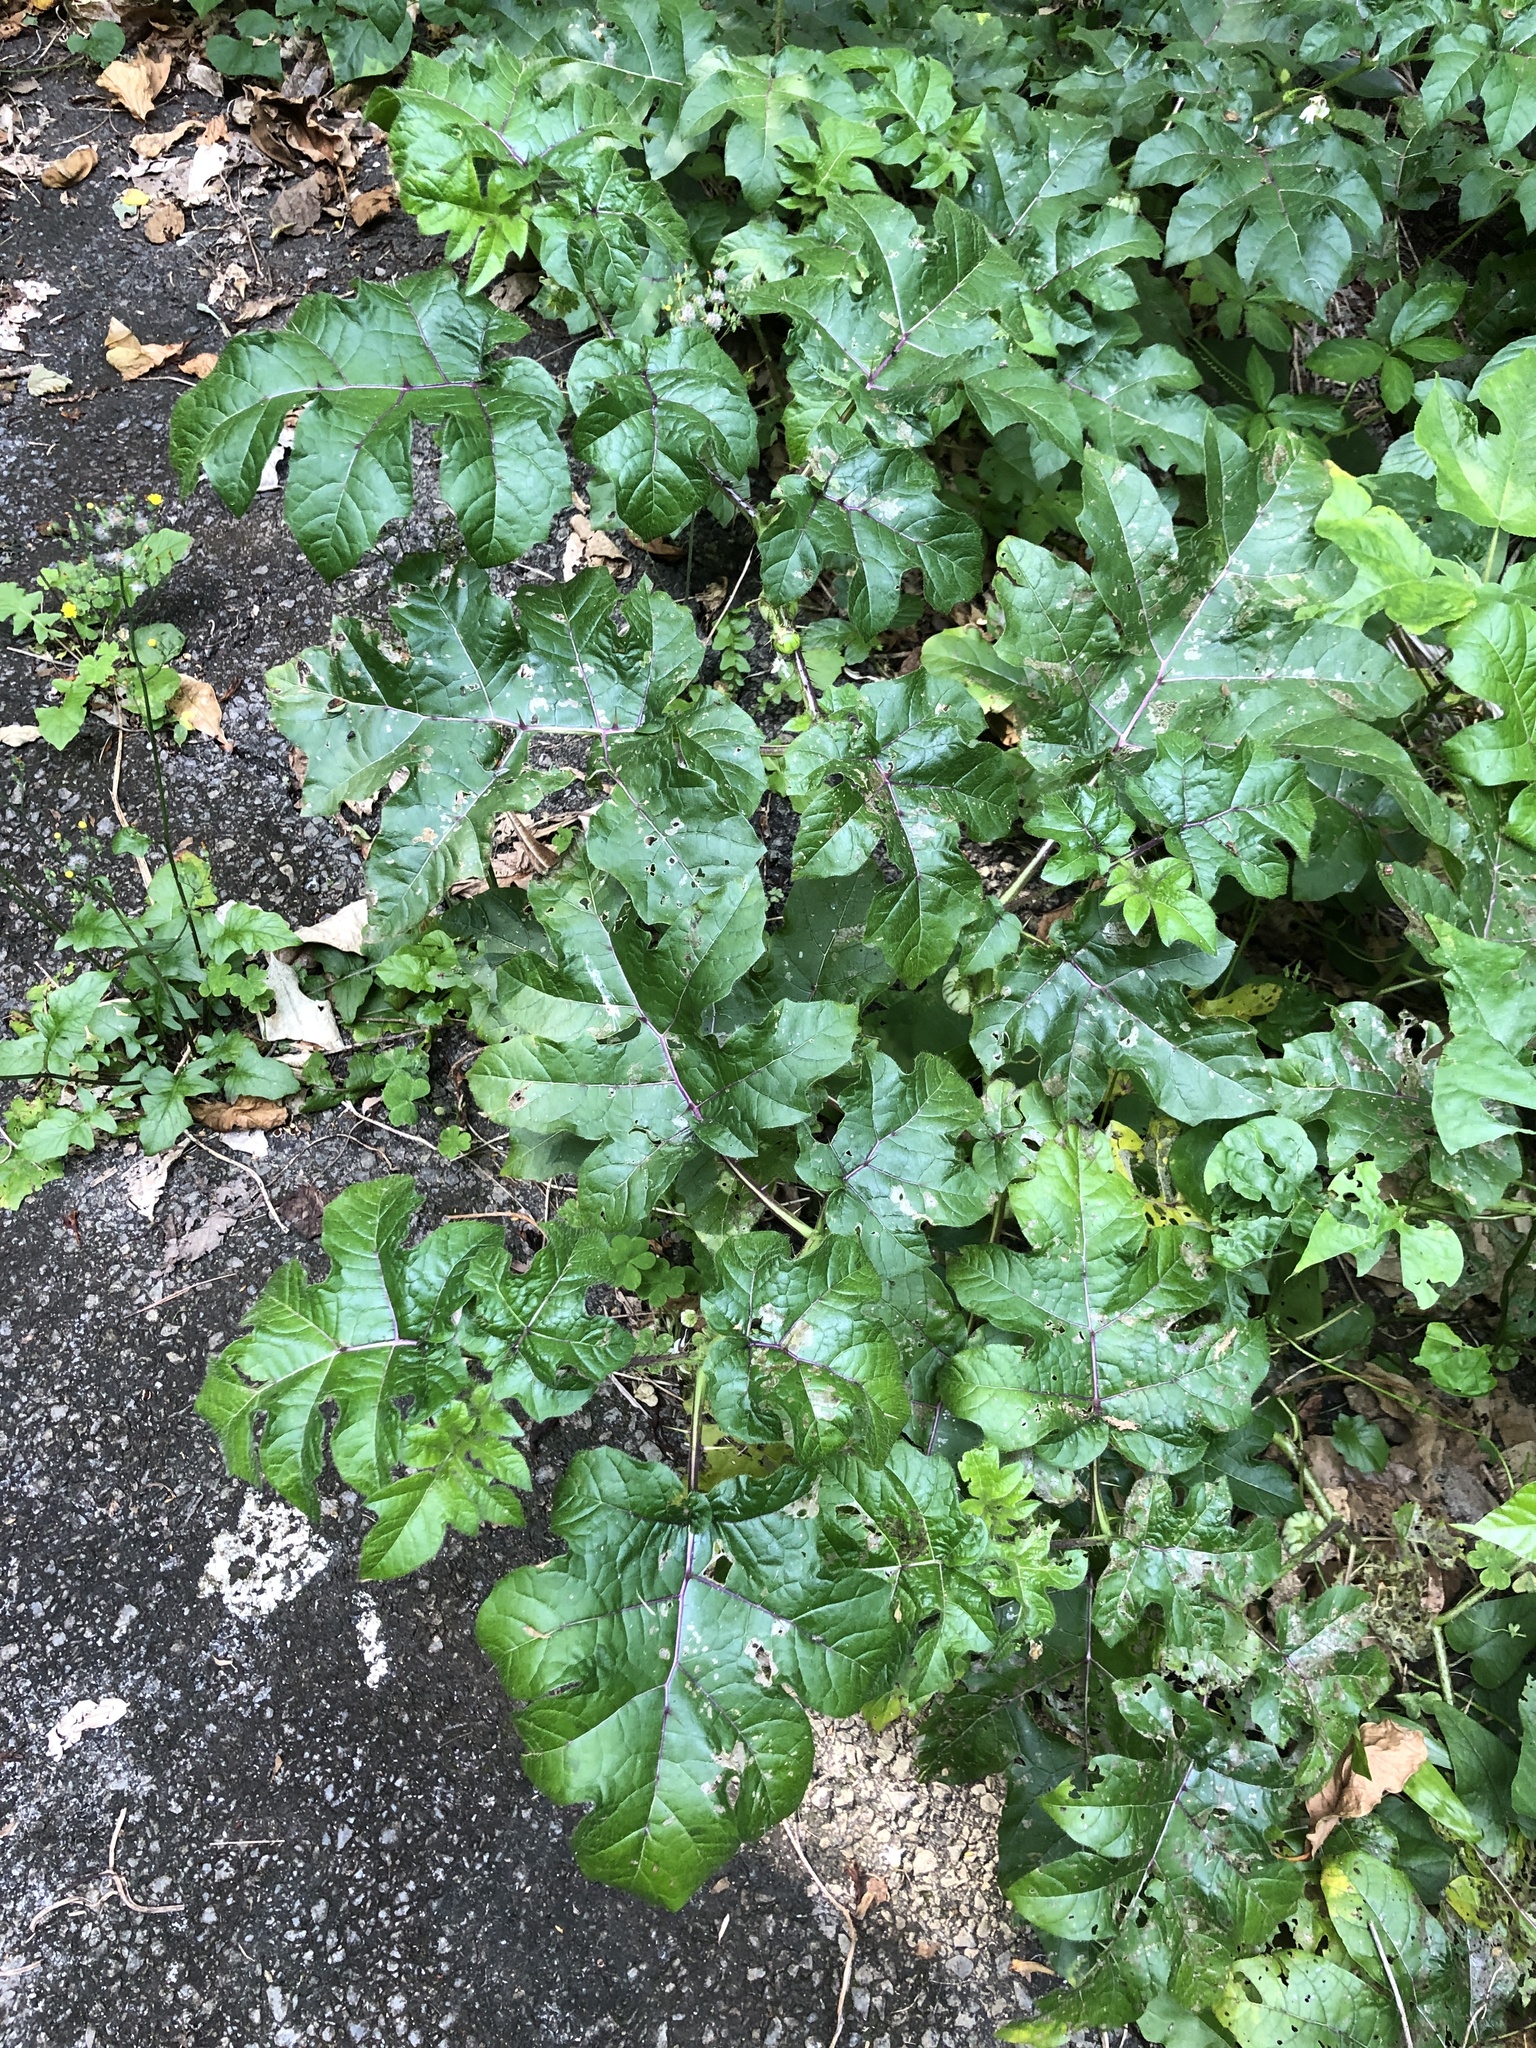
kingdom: Plantae
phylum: Tracheophyta
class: Magnoliopsida
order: Solanales
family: Solanaceae
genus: Solanum
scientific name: Solanum capsicoides
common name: Cockroach berry
